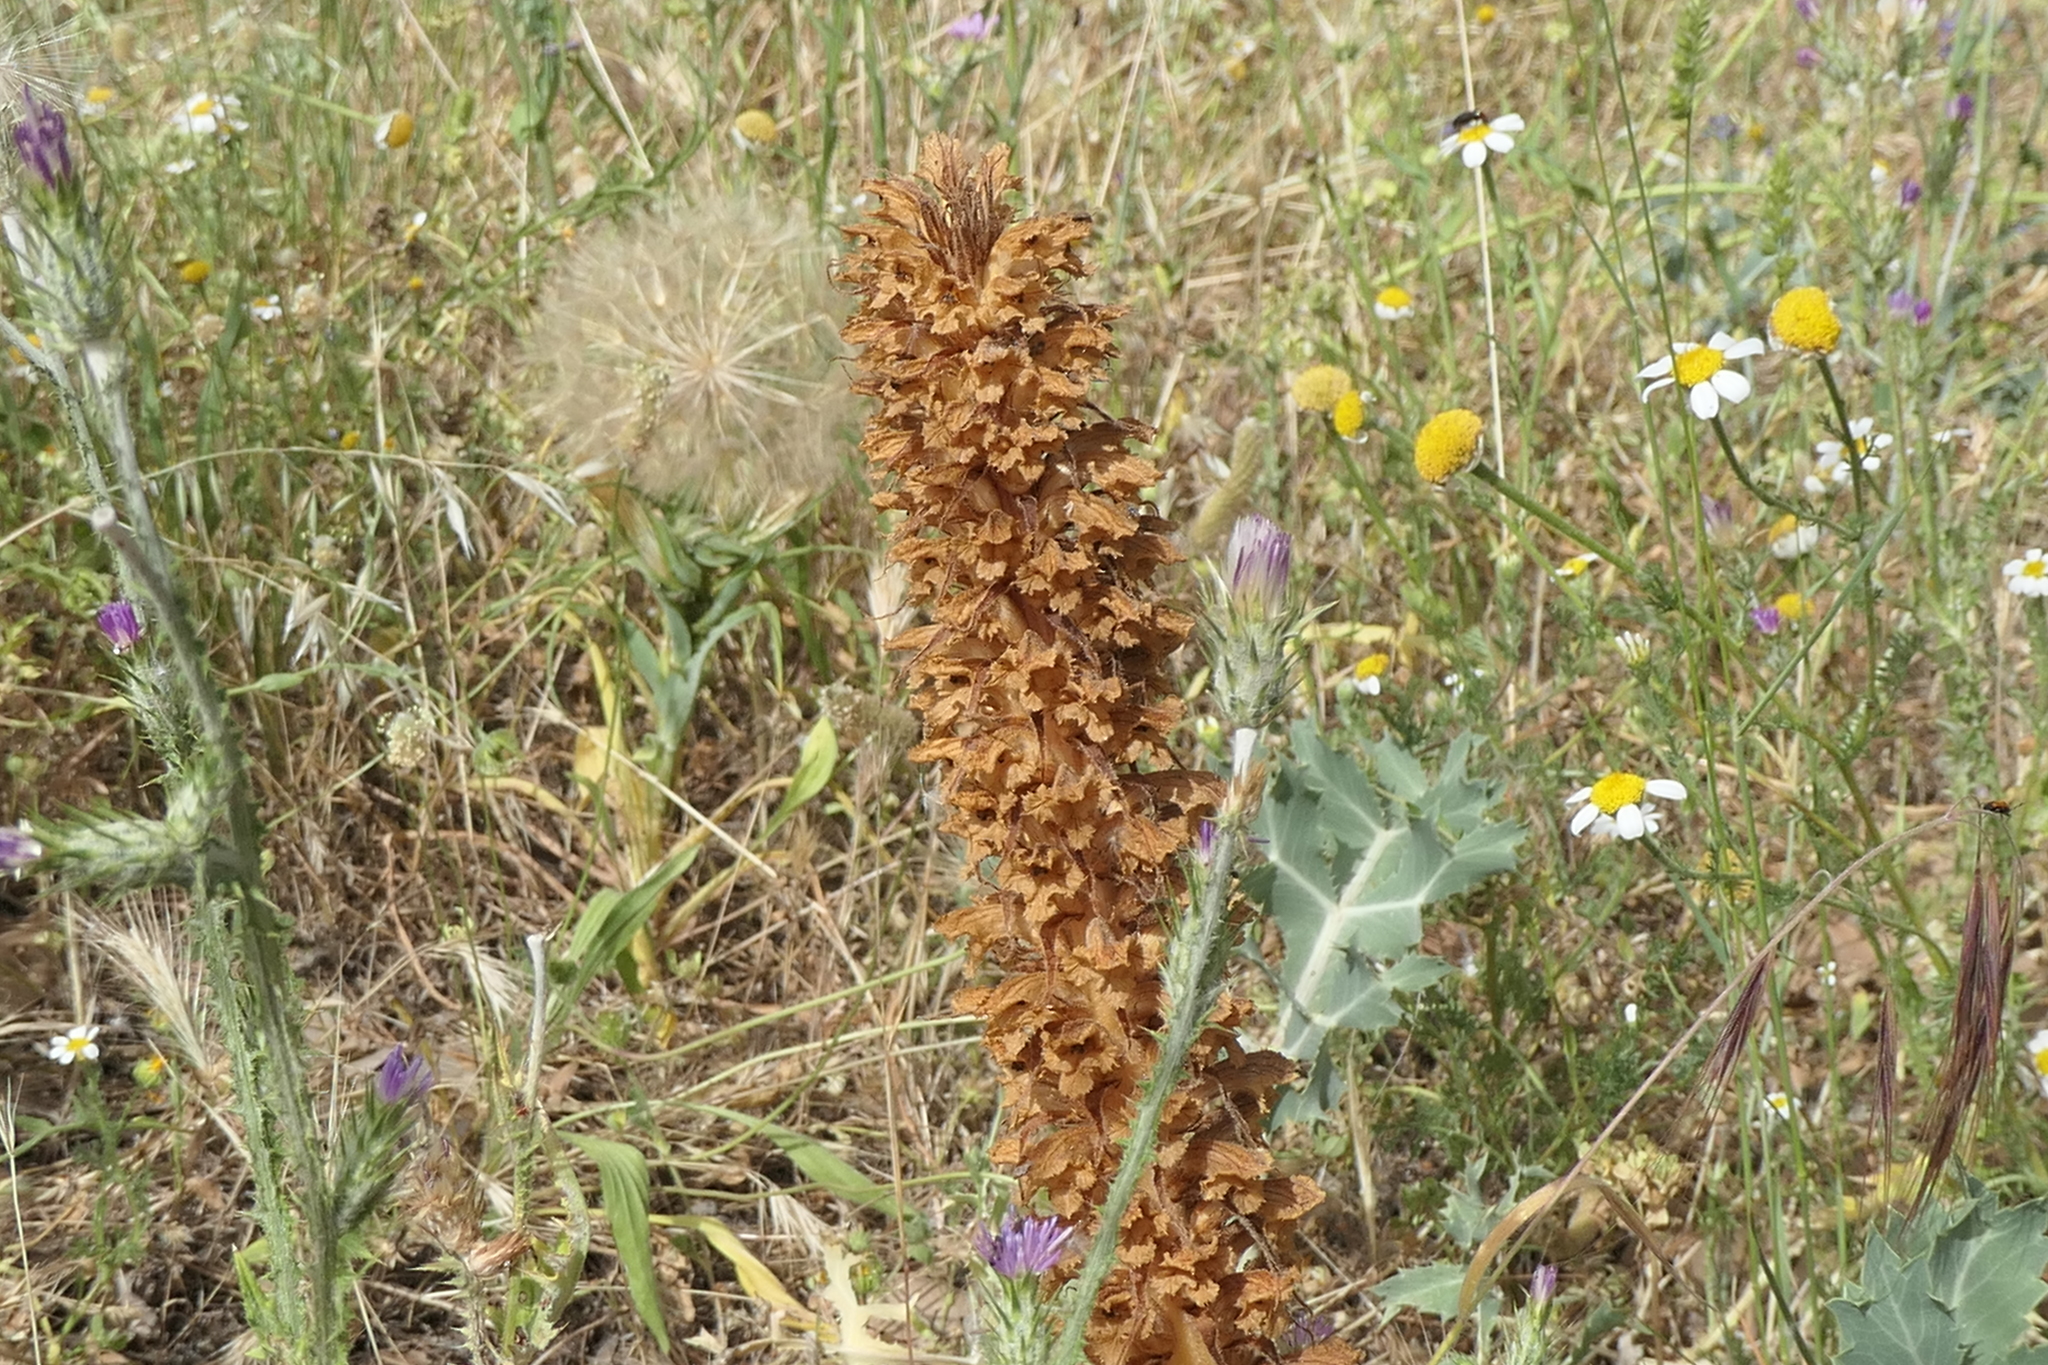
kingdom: Plantae
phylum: Tracheophyta
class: Magnoliopsida
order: Lamiales
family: Orobanchaceae
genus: Orobanche
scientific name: Orobanche amethystea
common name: Amethyst broomrape
